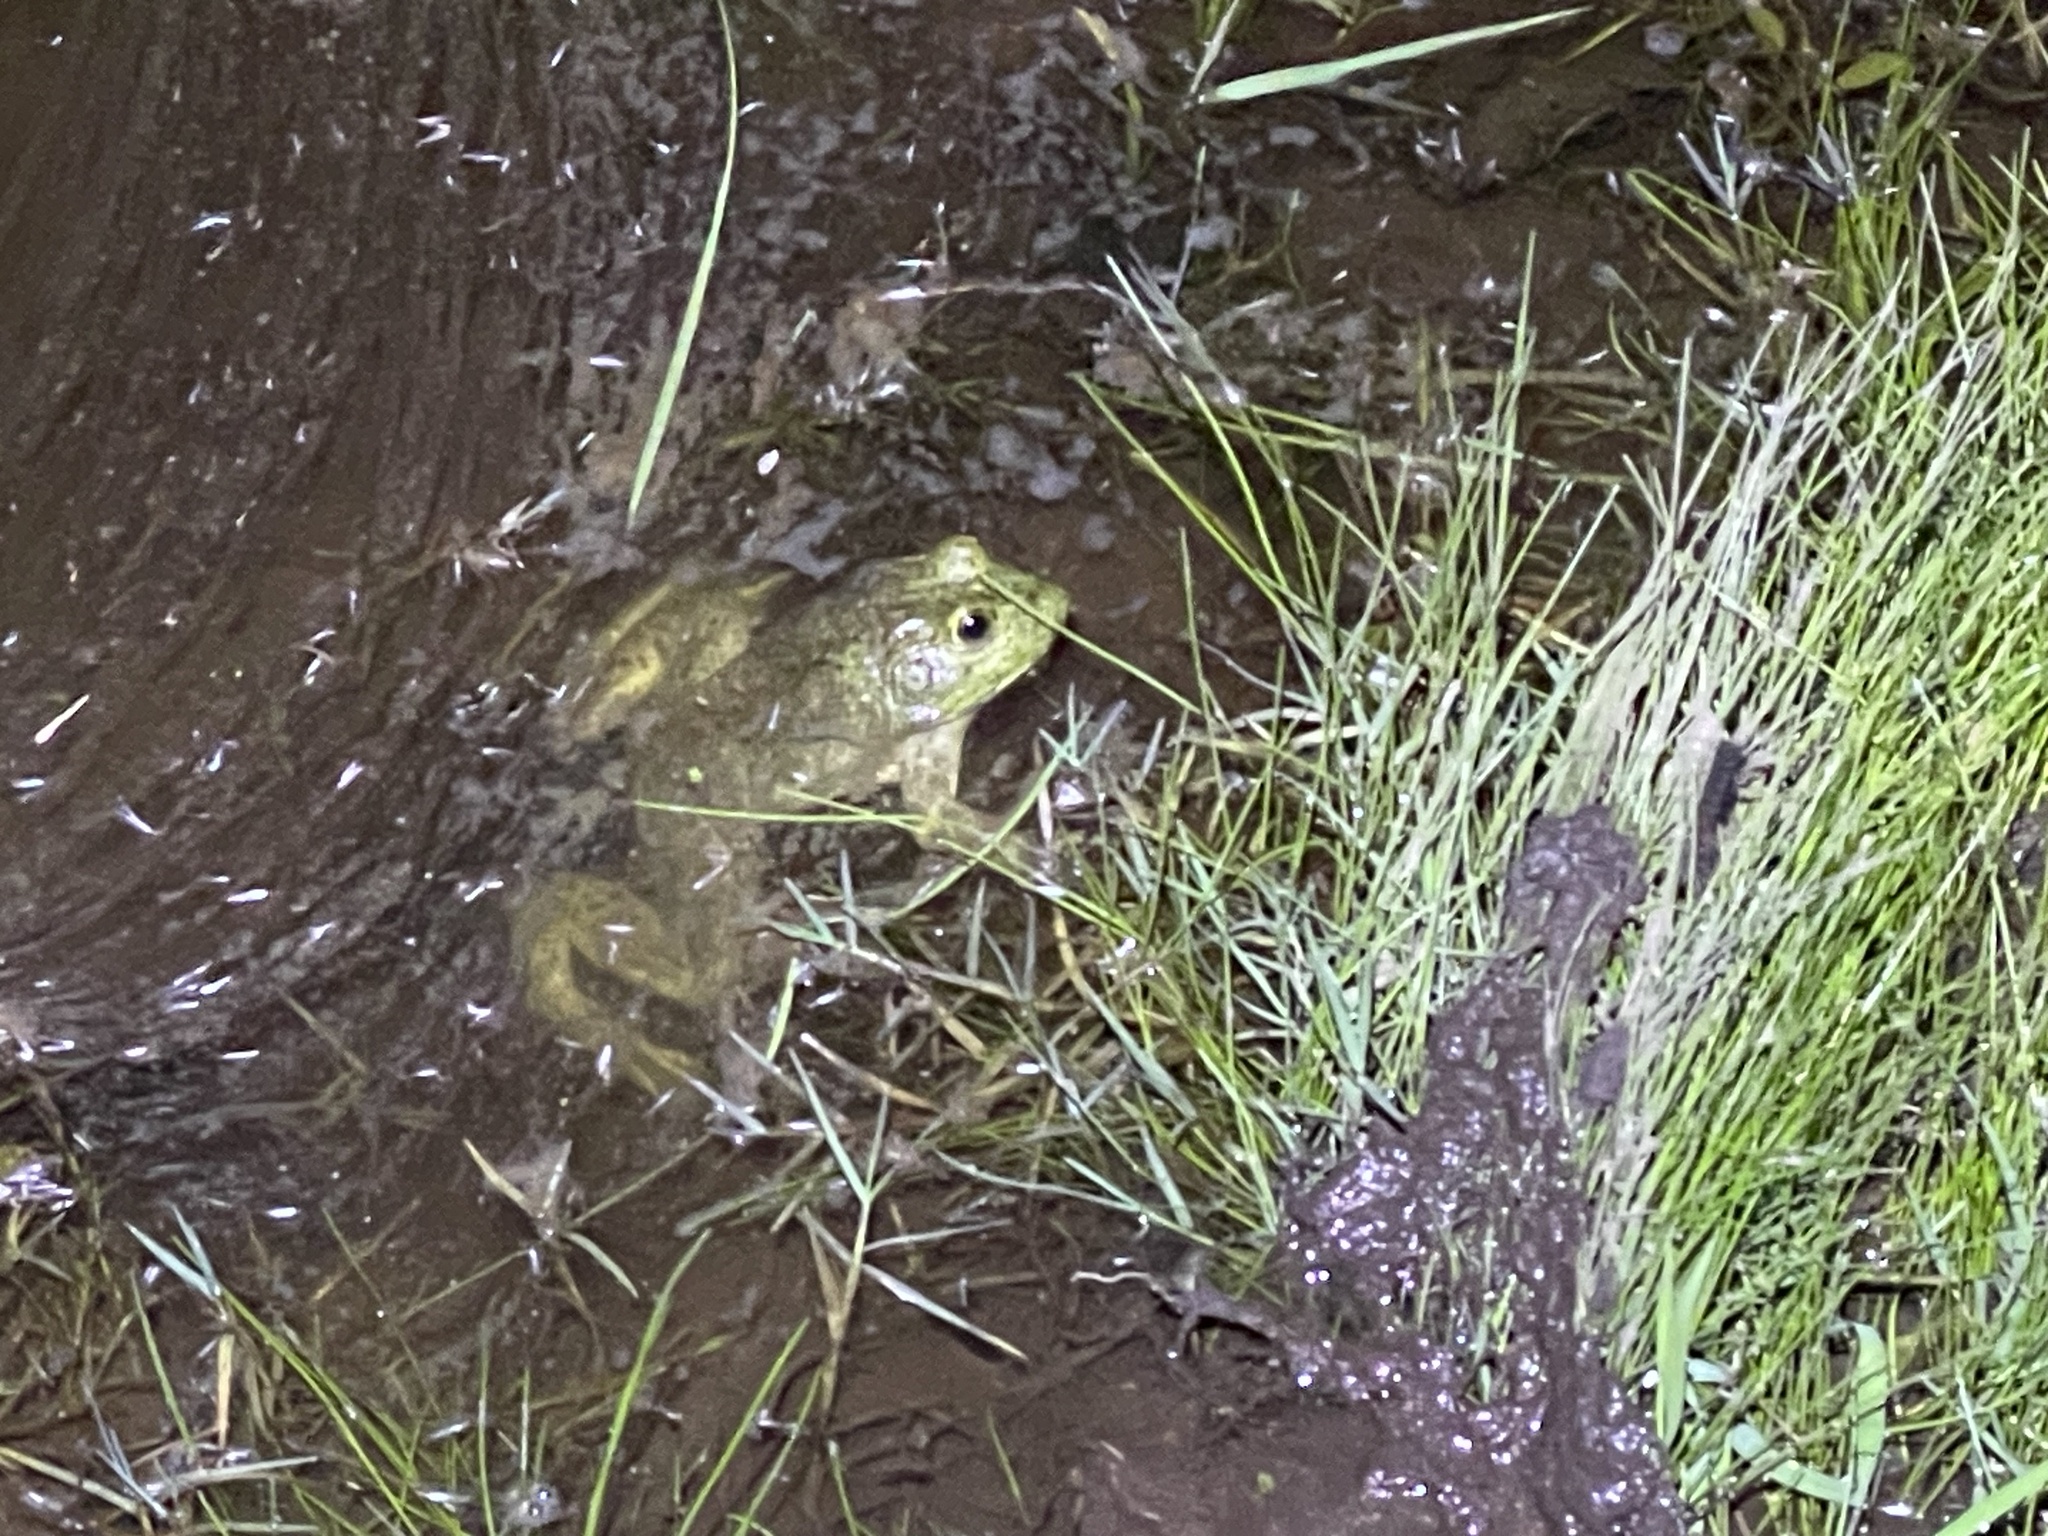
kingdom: Animalia
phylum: Chordata
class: Amphibia
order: Anura
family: Ranidae
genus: Lithobates
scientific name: Lithobates catesbeianus
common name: American bullfrog
